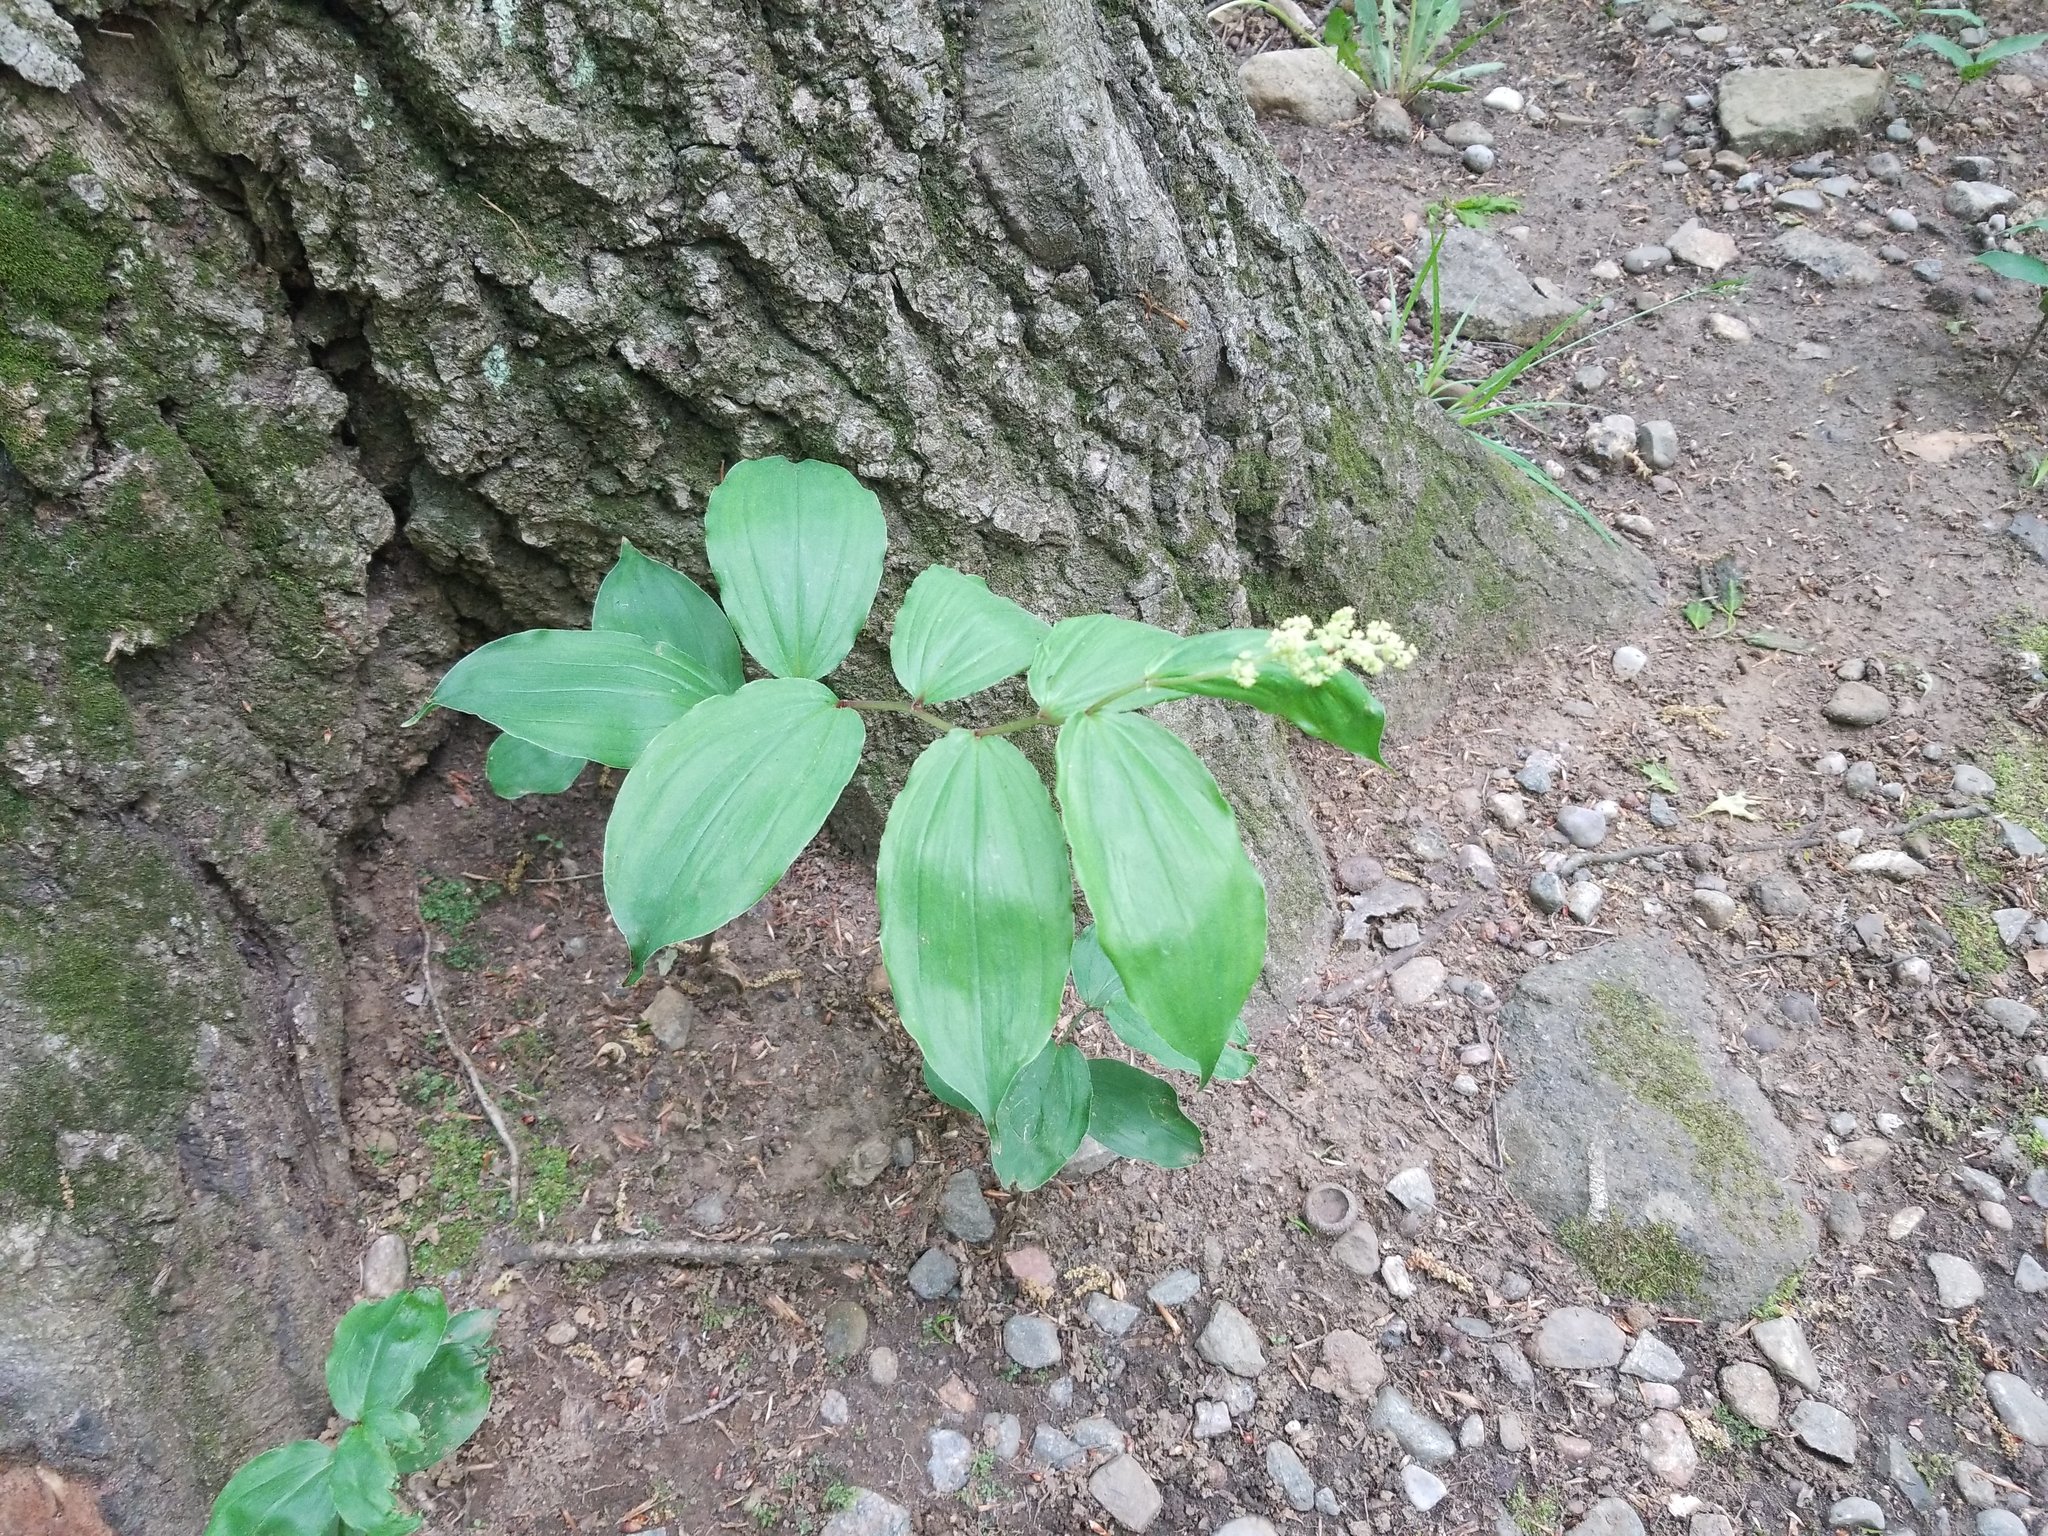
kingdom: Plantae
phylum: Tracheophyta
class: Liliopsida
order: Asparagales
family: Asparagaceae
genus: Maianthemum
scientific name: Maianthemum racemosum
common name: False spikenard
